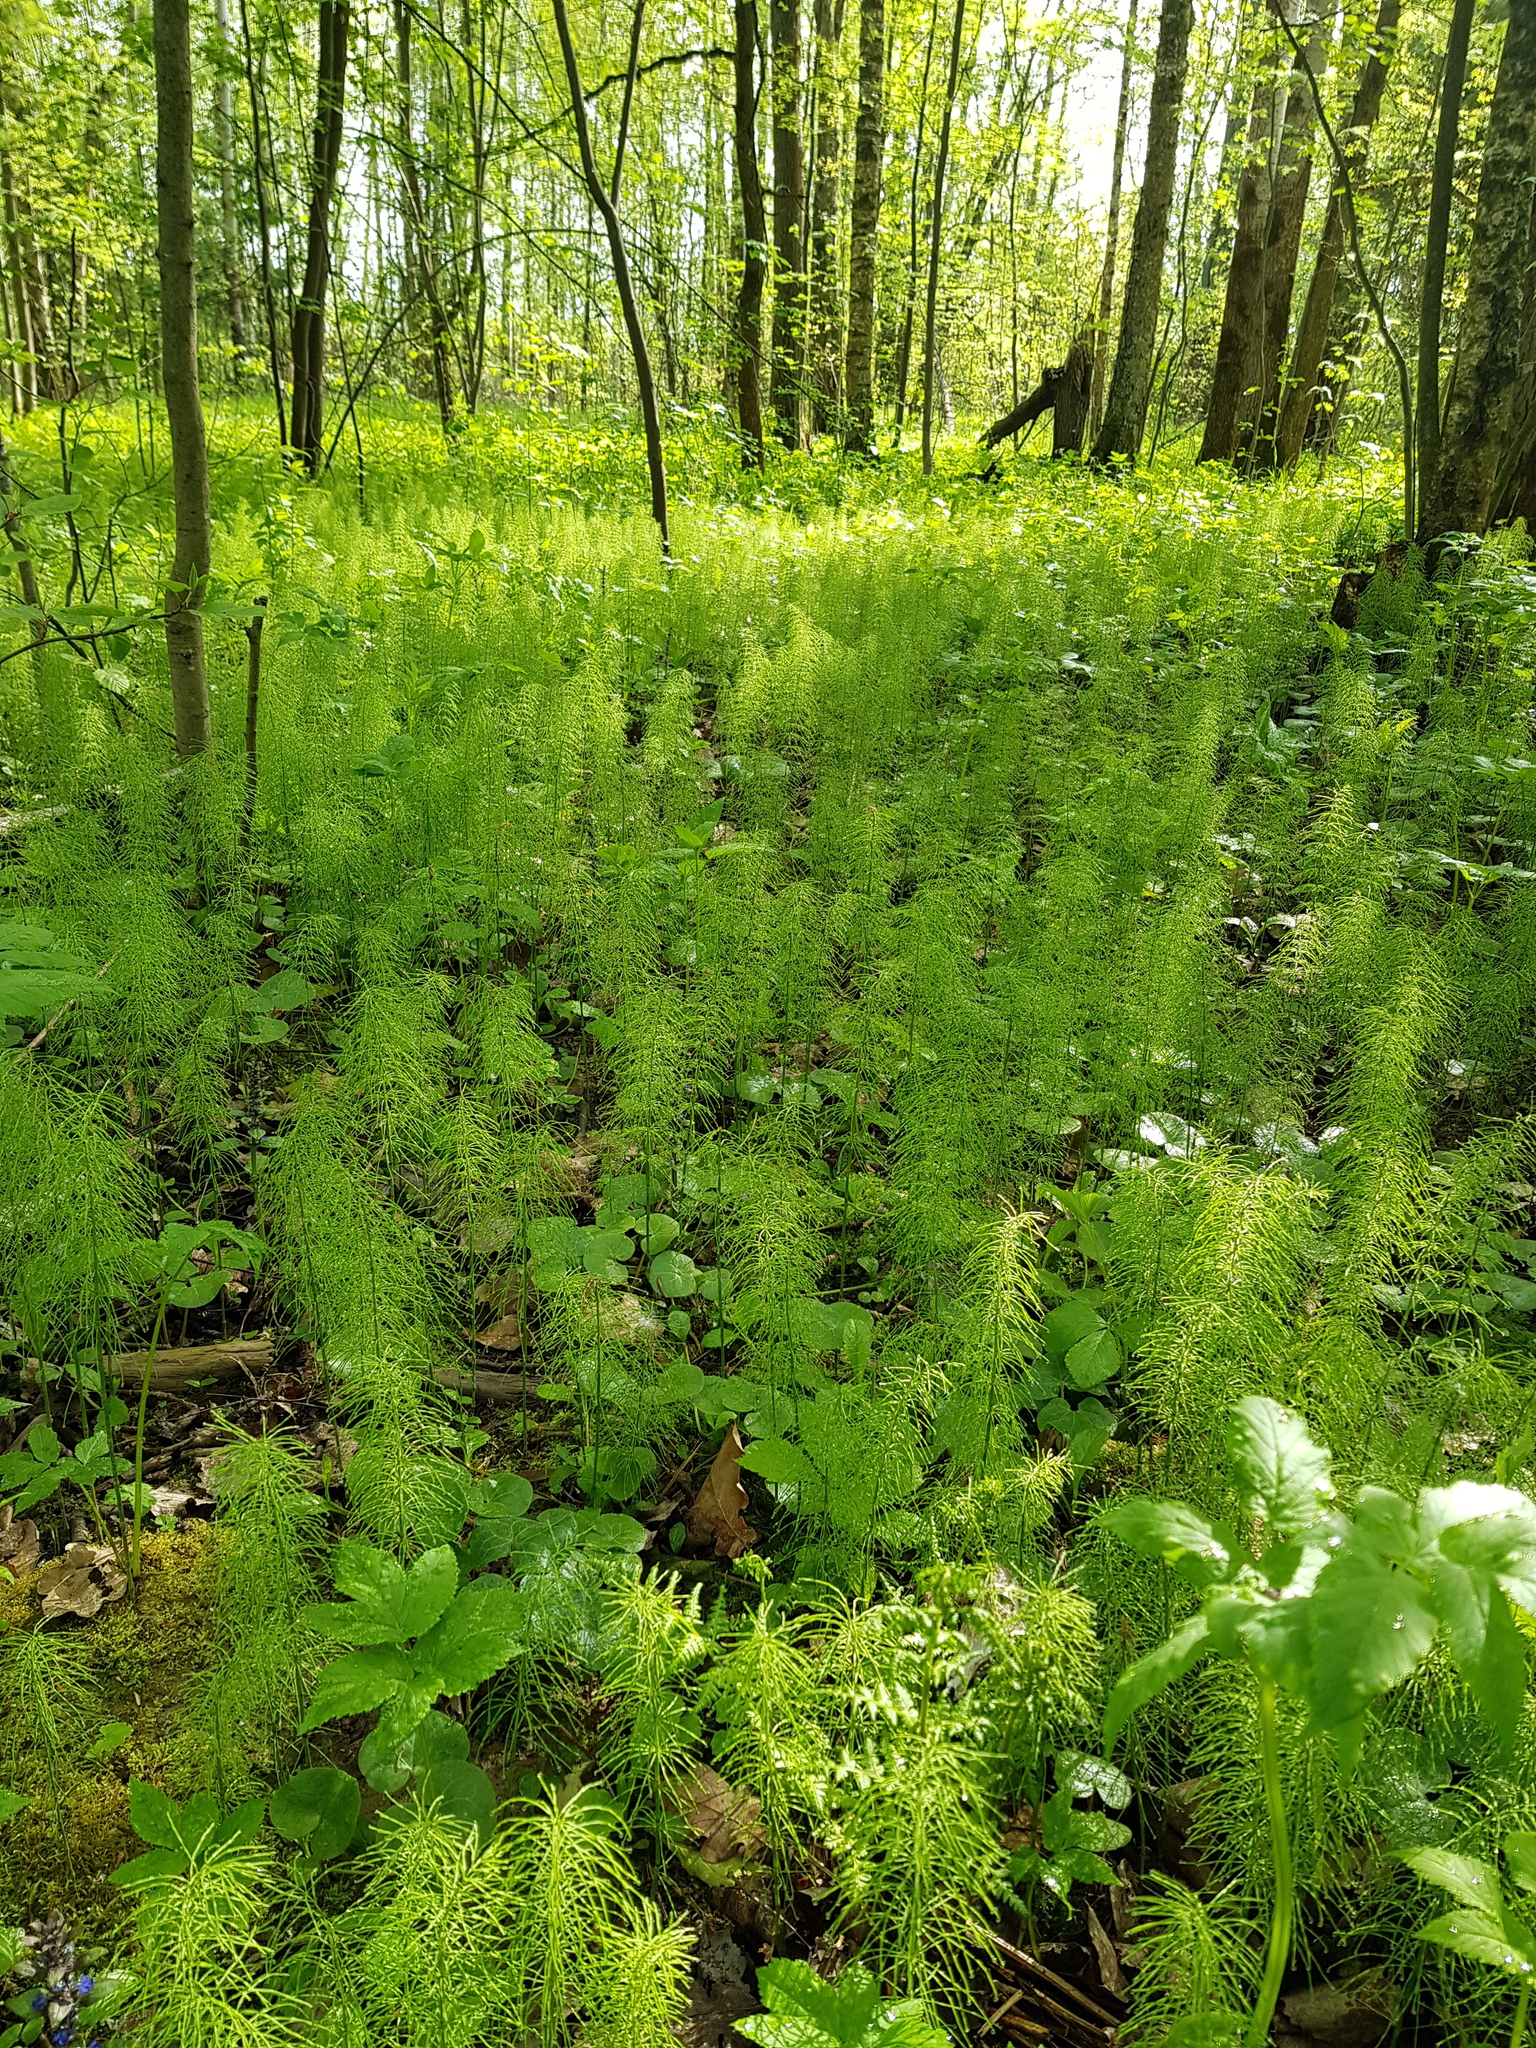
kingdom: Plantae
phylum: Tracheophyta
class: Polypodiopsida
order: Equisetales
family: Equisetaceae
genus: Equisetum
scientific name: Equisetum pratense
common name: Meadow horsetail
